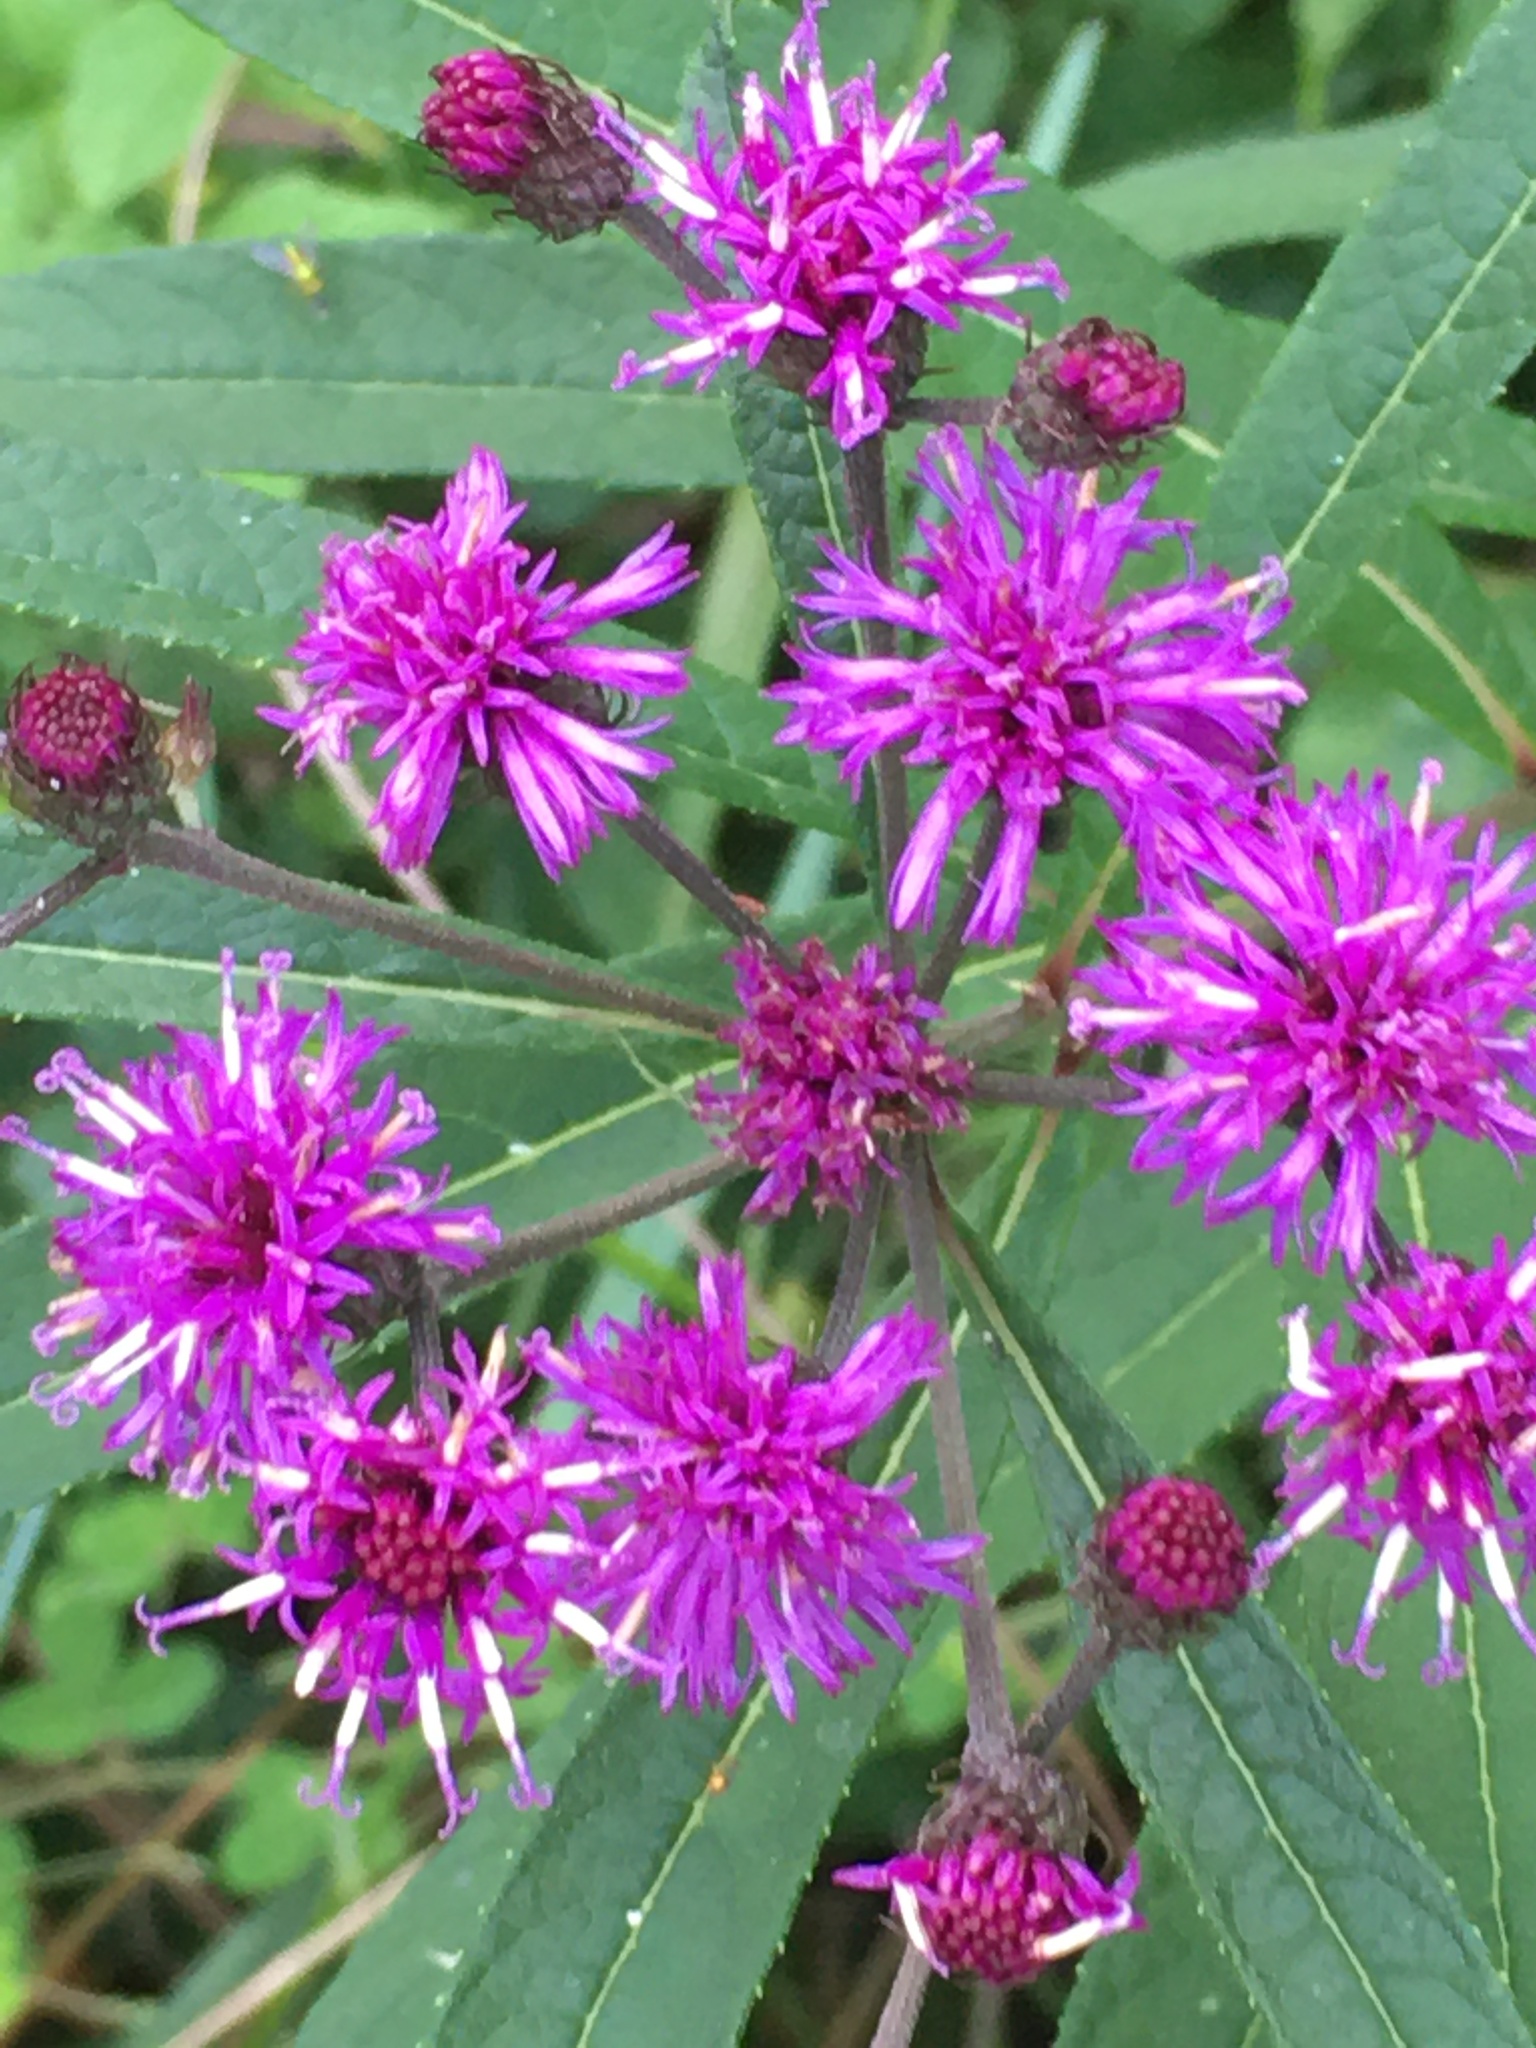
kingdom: Plantae
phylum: Tracheophyta
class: Magnoliopsida
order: Asterales
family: Asteraceae
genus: Vernonia
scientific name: Vernonia noveboracensis
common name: New york ironweed
